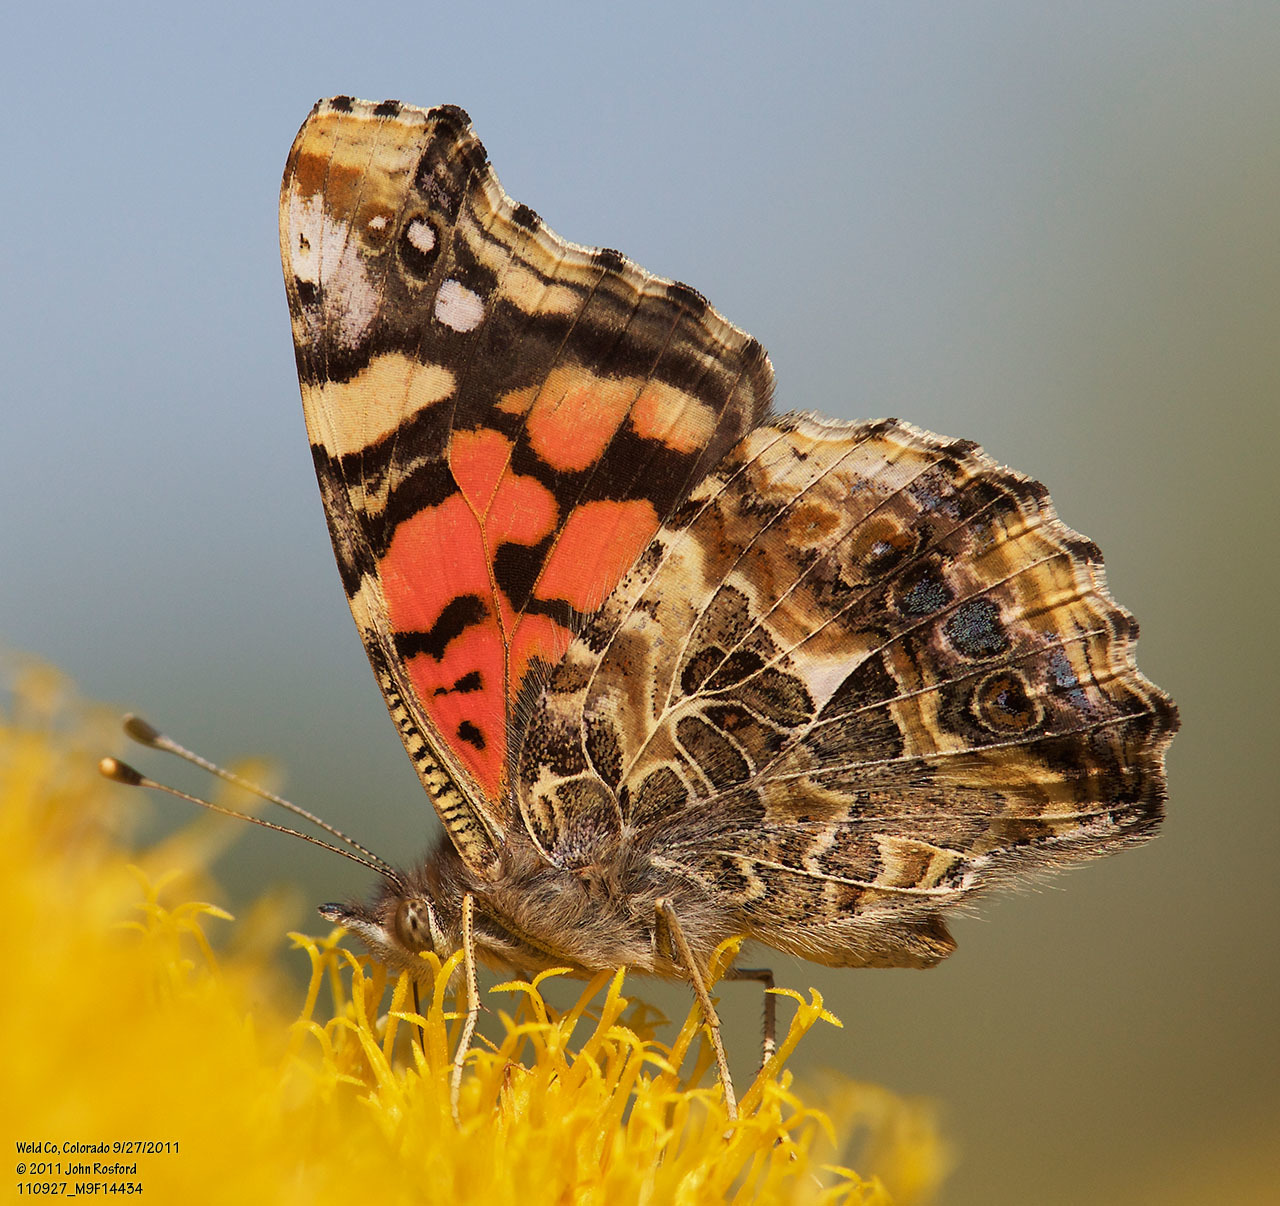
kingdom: Animalia
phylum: Arthropoda
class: Insecta
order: Lepidoptera
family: Nymphalidae
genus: Vanessa
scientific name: Vanessa annabella
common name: West coast lady
